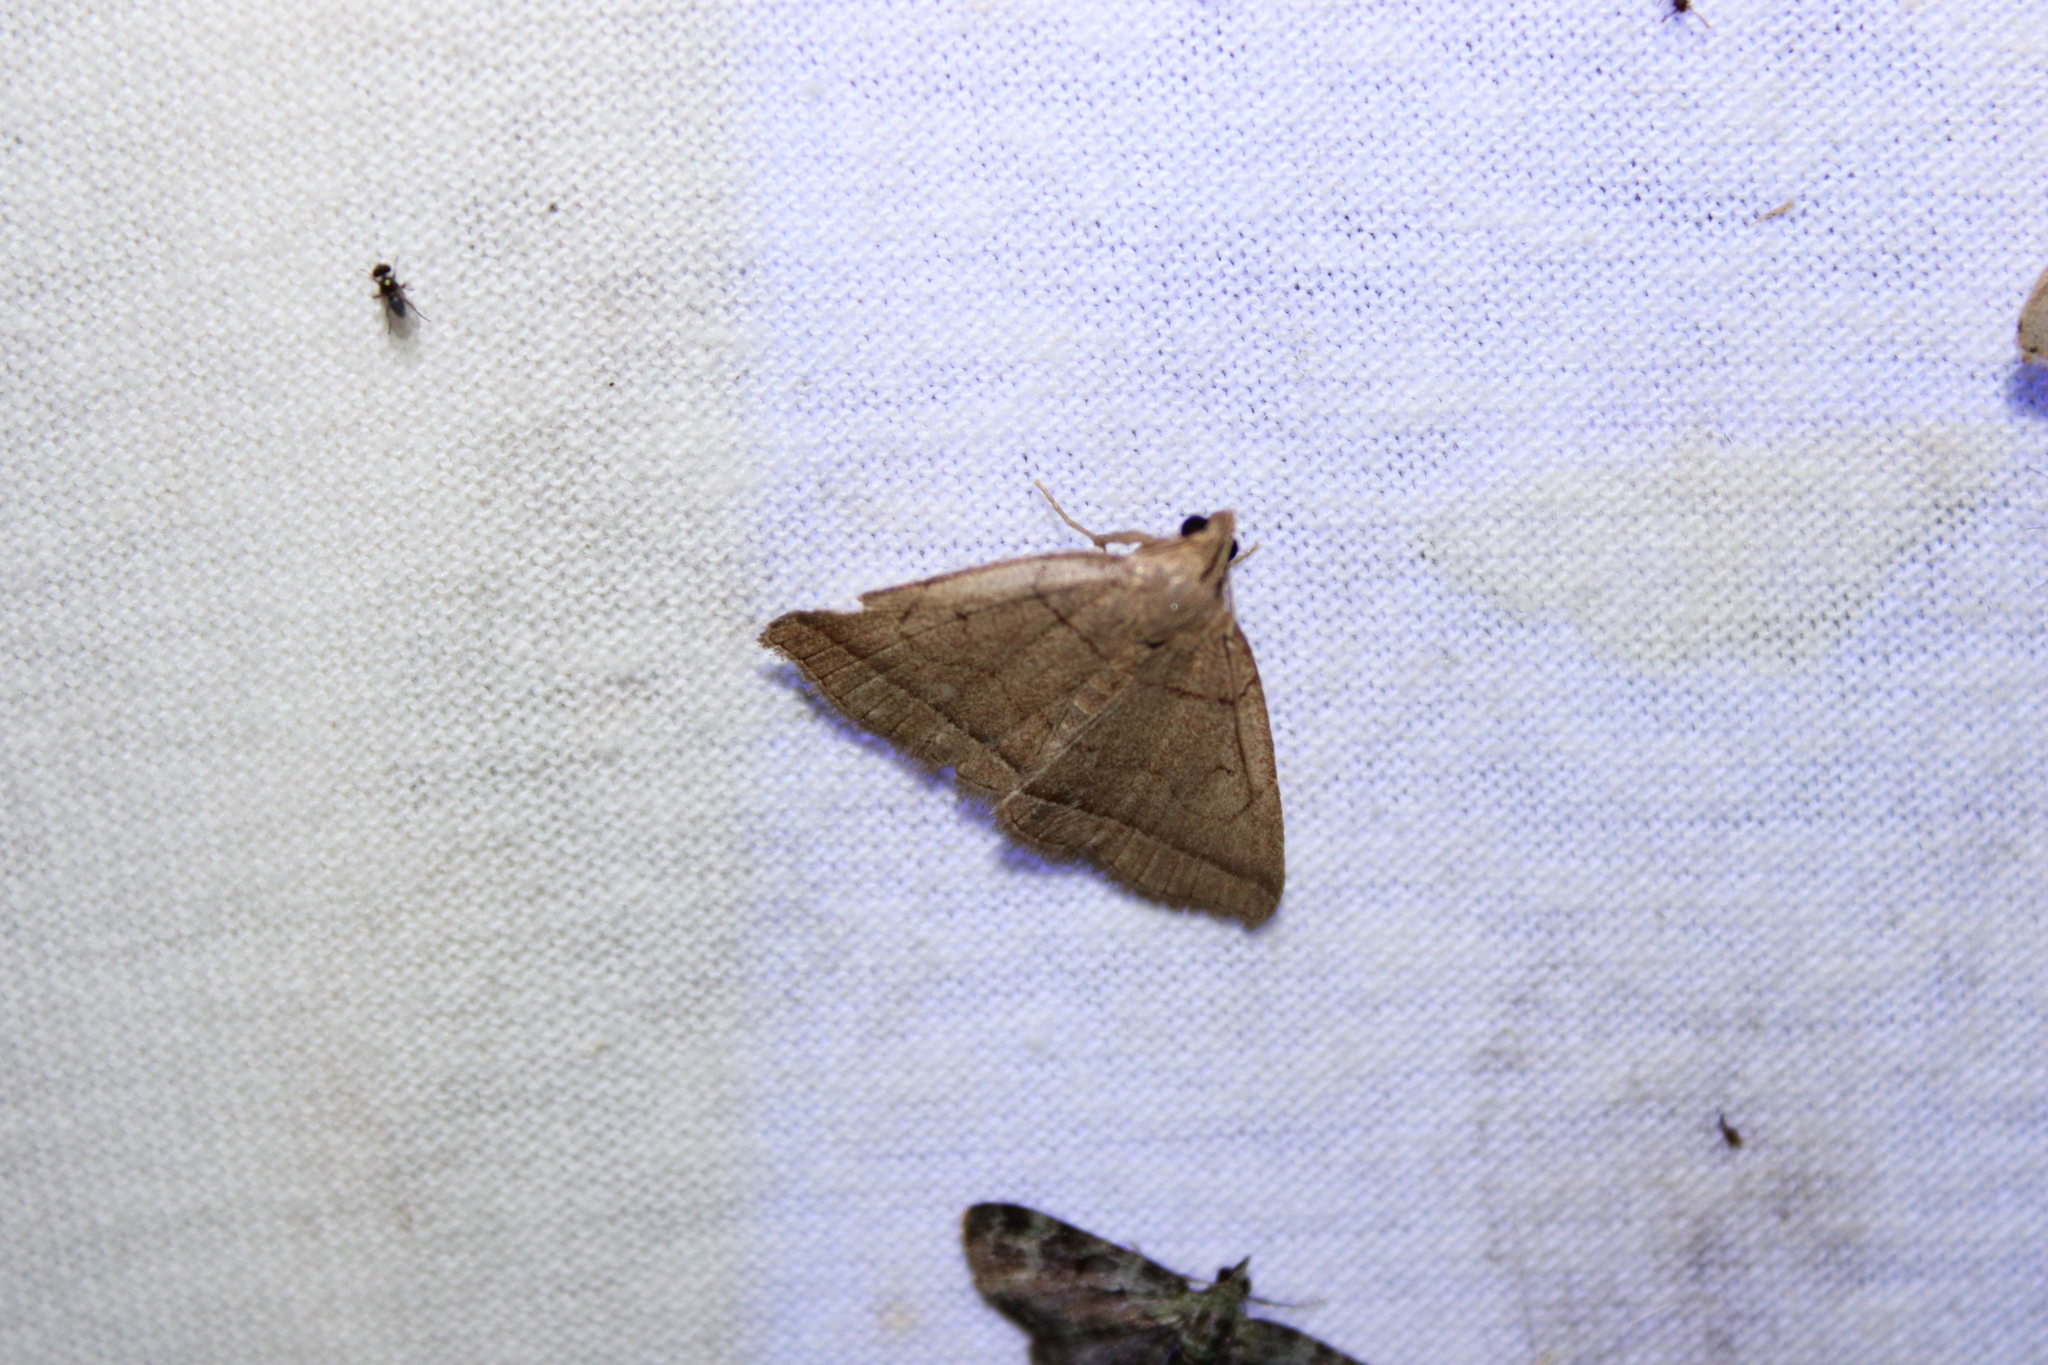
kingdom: Animalia
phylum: Arthropoda
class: Insecta
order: Lepidoptera
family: Erebidae
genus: Zanclognatha
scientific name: Zanclognatha cruralis
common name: Early fan-foot
